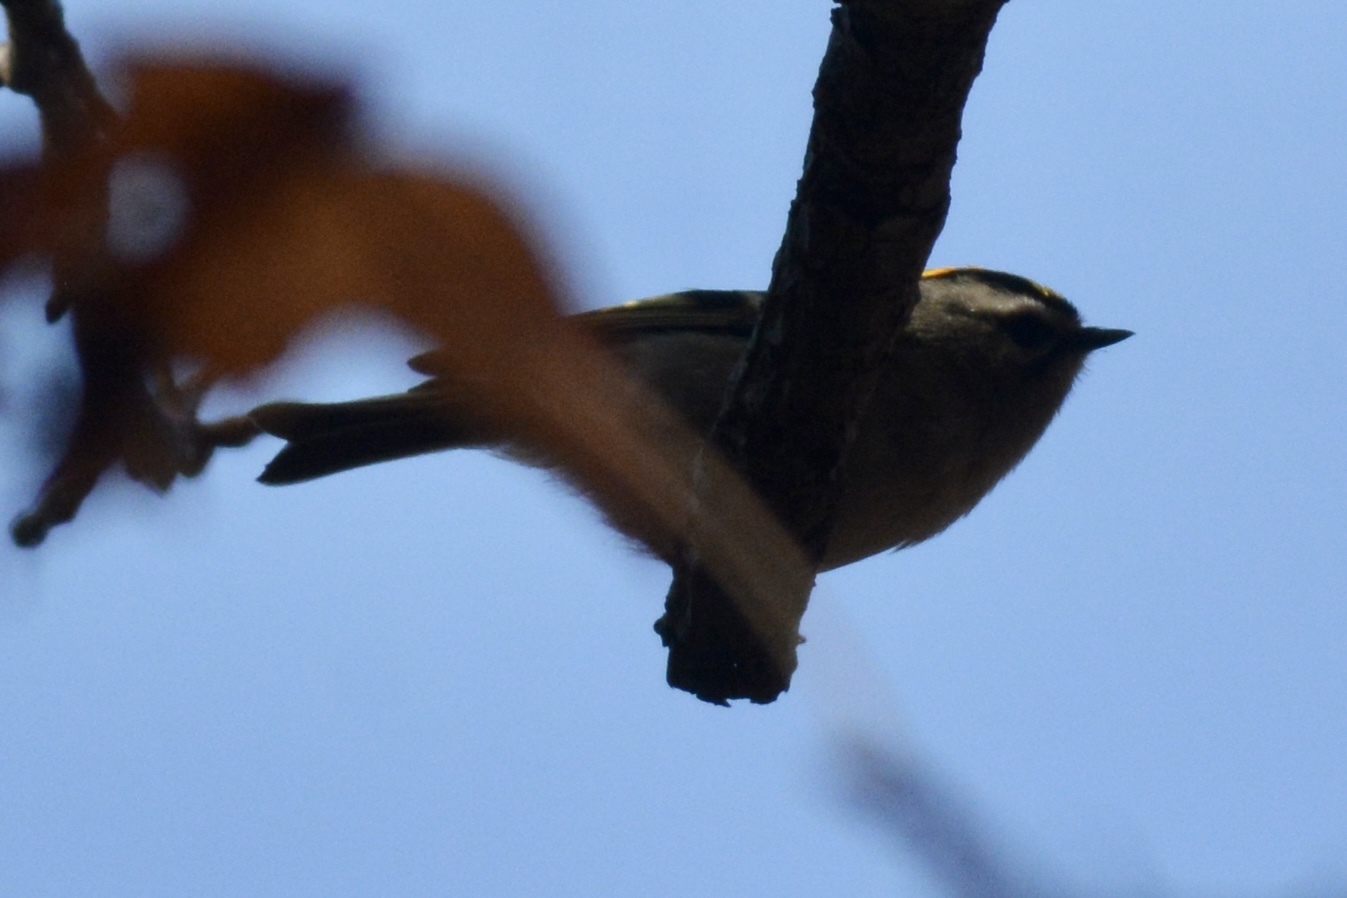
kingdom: Animalia
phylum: Chordata
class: Aves
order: Passeriformes
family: Regulidae
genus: Regulus
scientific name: Regulus satrapa
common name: Golden-crowned kinglet
